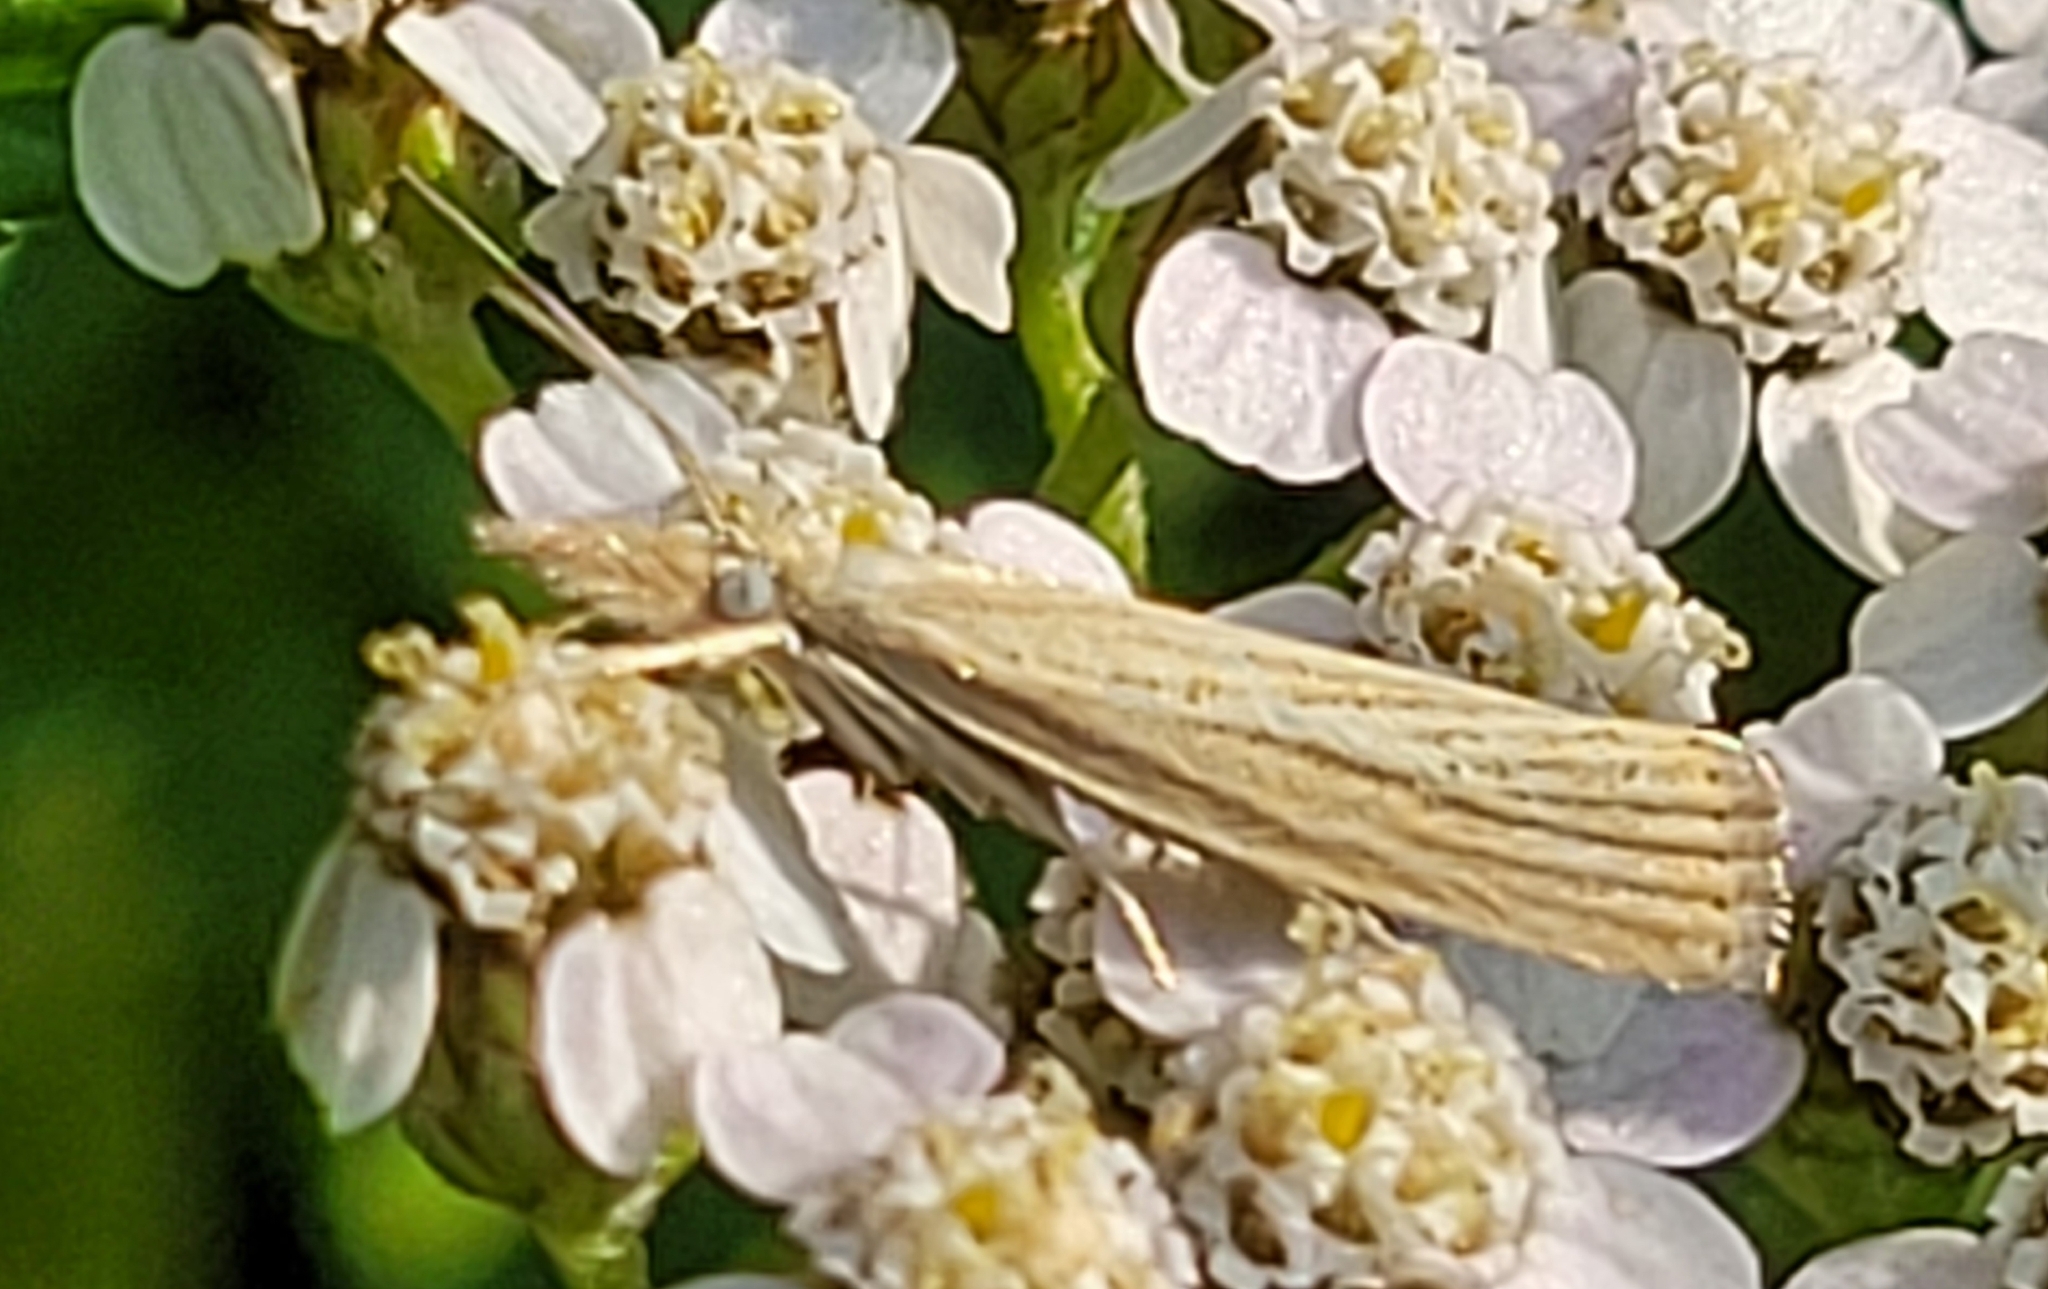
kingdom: Animalia
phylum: Arthropoda
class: Insecta
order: Lepidoptera
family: Crambidae
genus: Agriphila
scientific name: Agriphila straminella
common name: Straw grass-veneer
